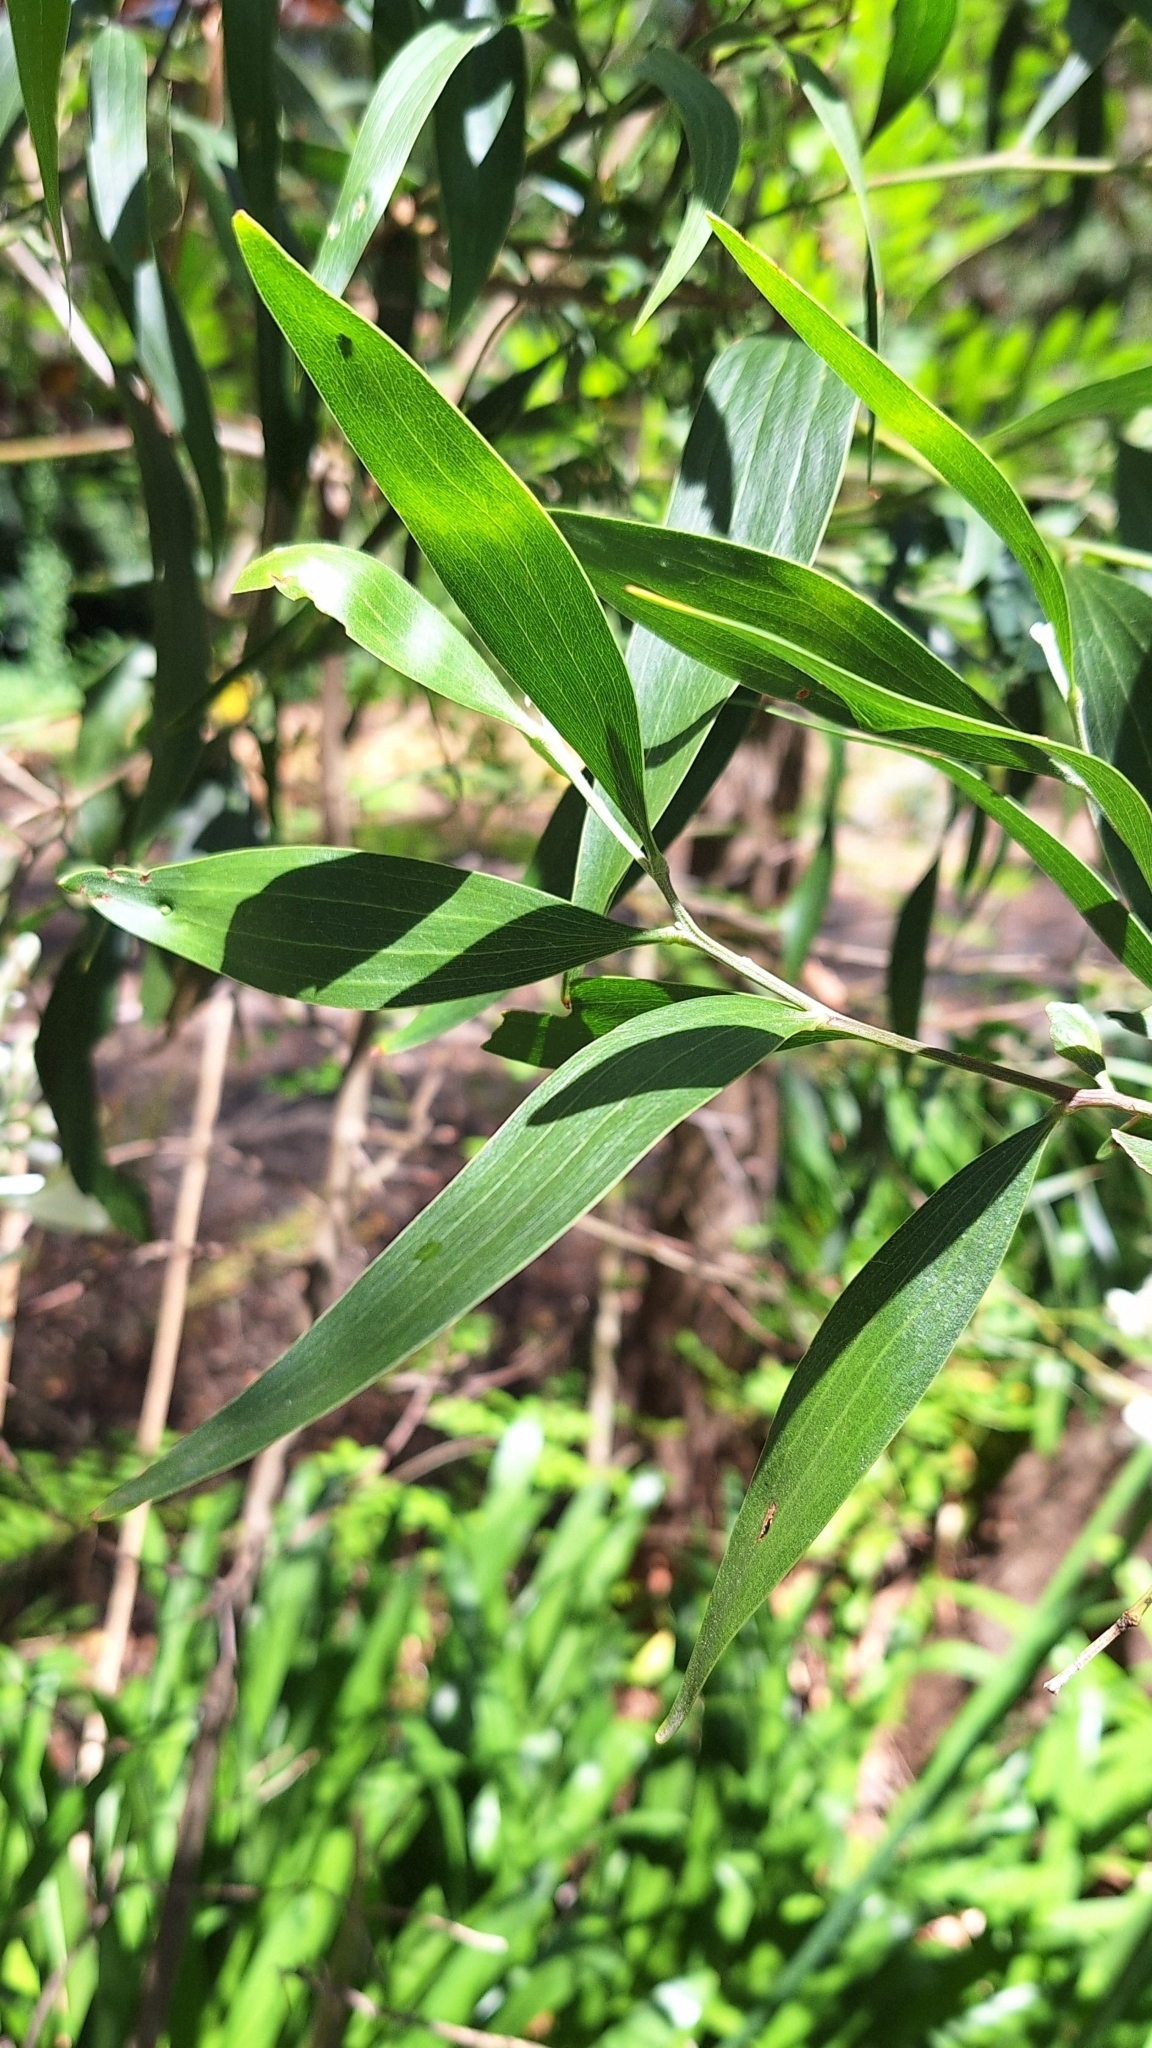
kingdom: Plantae
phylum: Tracheophyta
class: Magnoliopsida
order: Fabales
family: Fabaceae
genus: Acacia
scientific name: Acacia melanoxylon
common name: Blackwood
